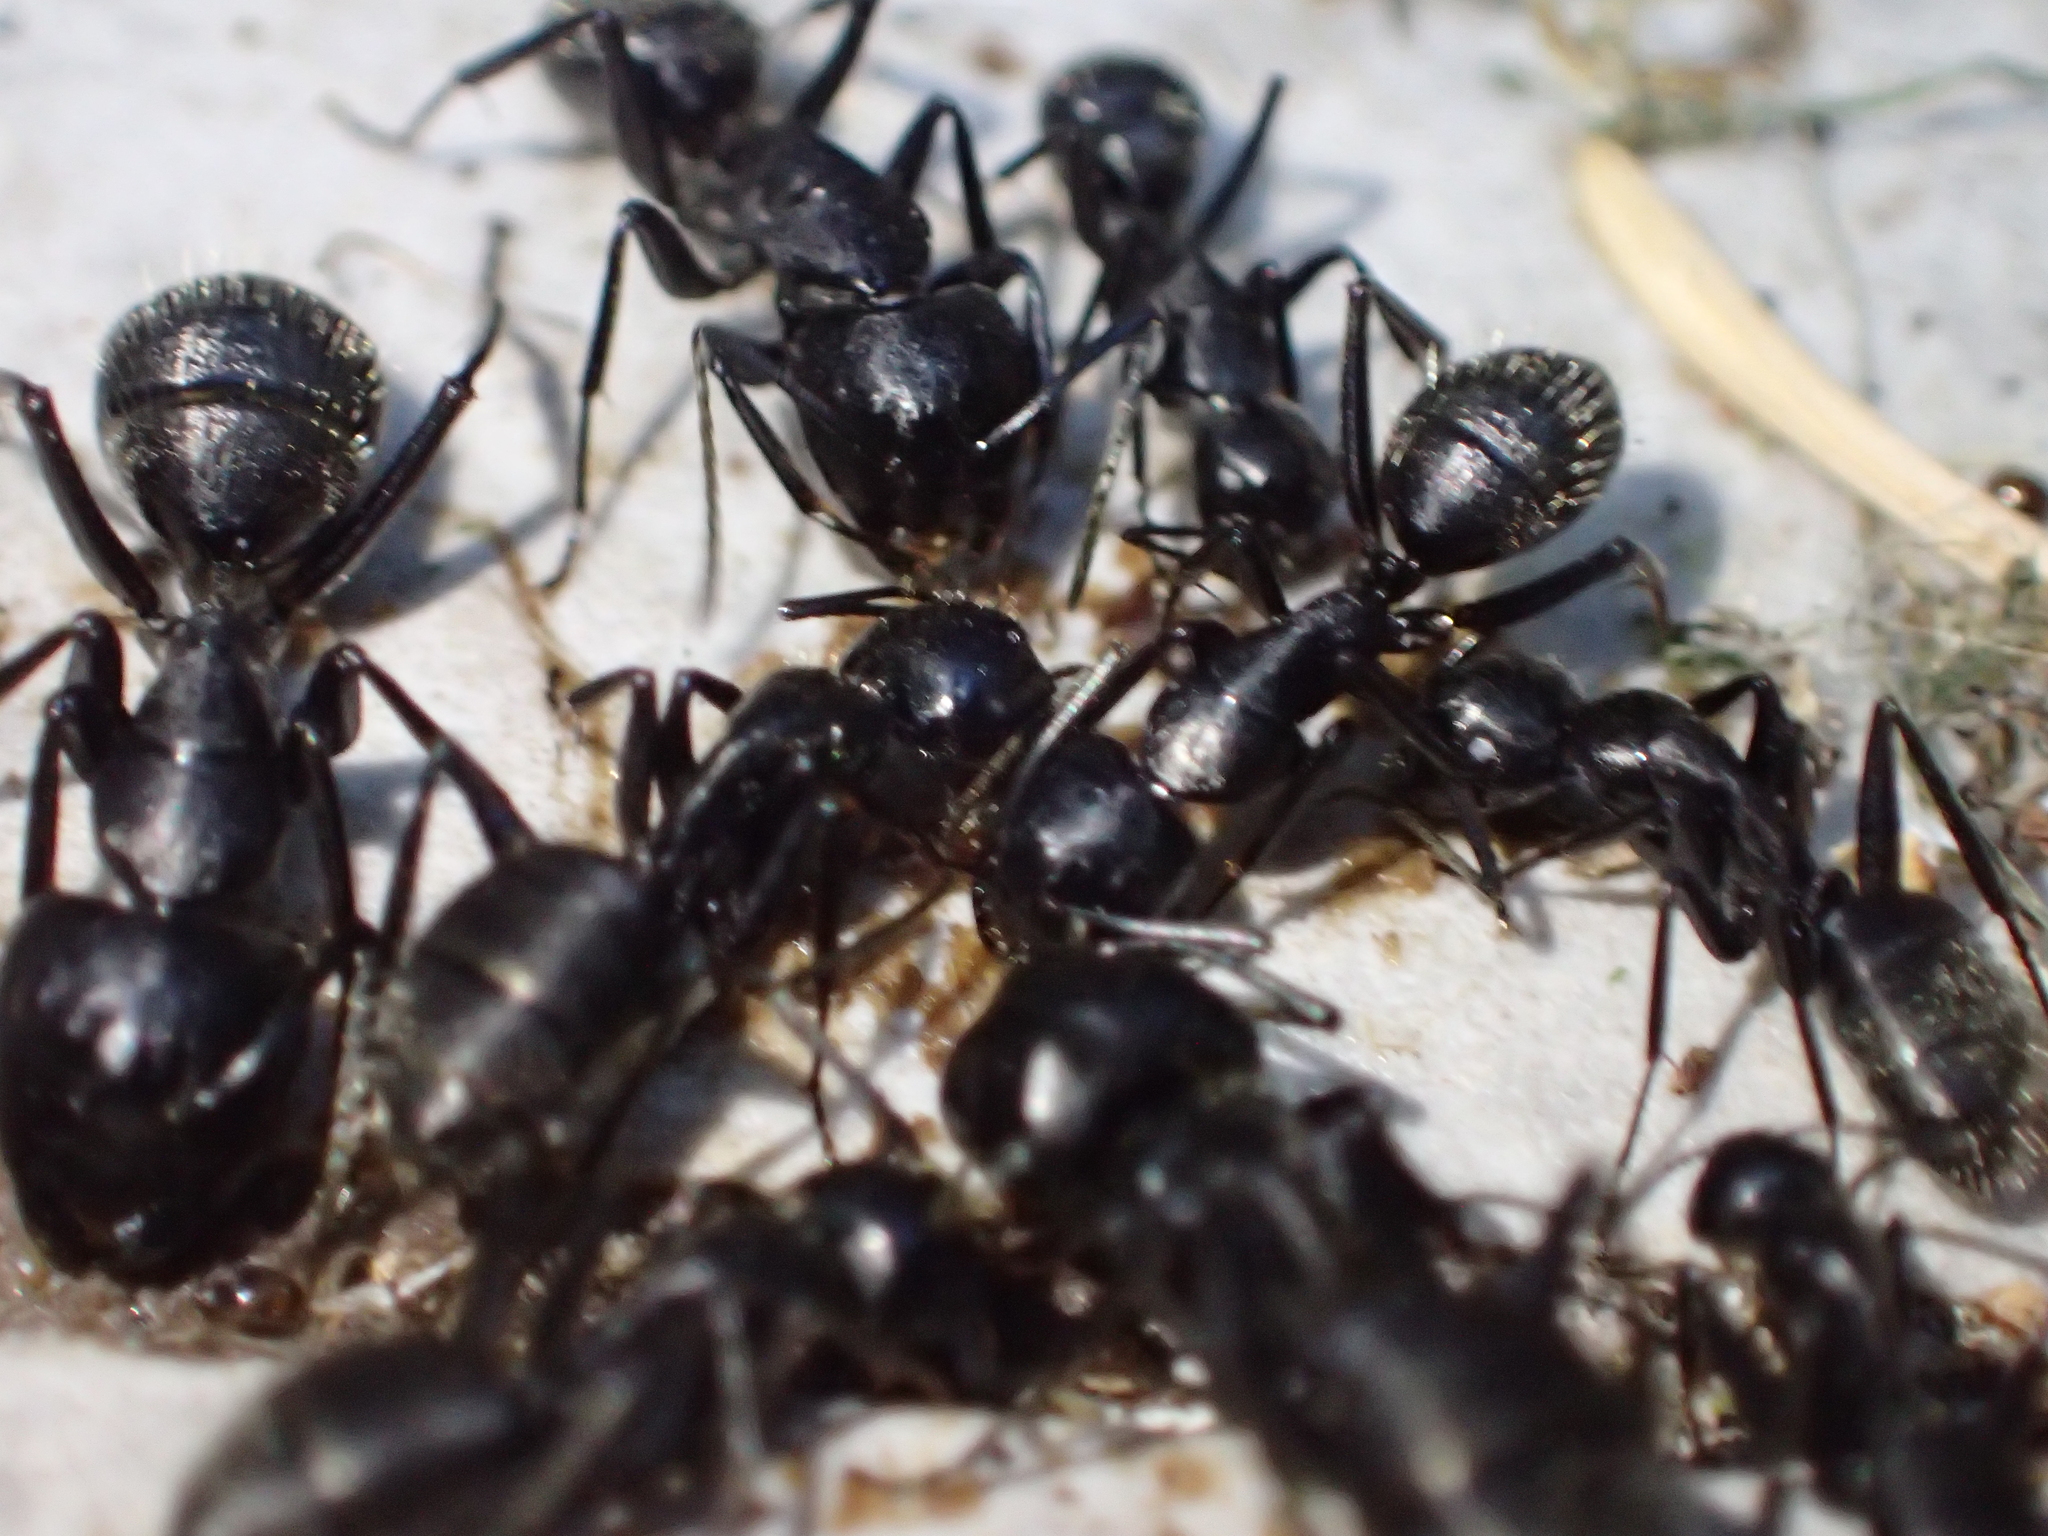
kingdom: Animalia
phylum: Arthropoda
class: Insecta
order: Hymenoptera
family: Formicidae
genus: Camponotus
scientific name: Camponotus vagus
